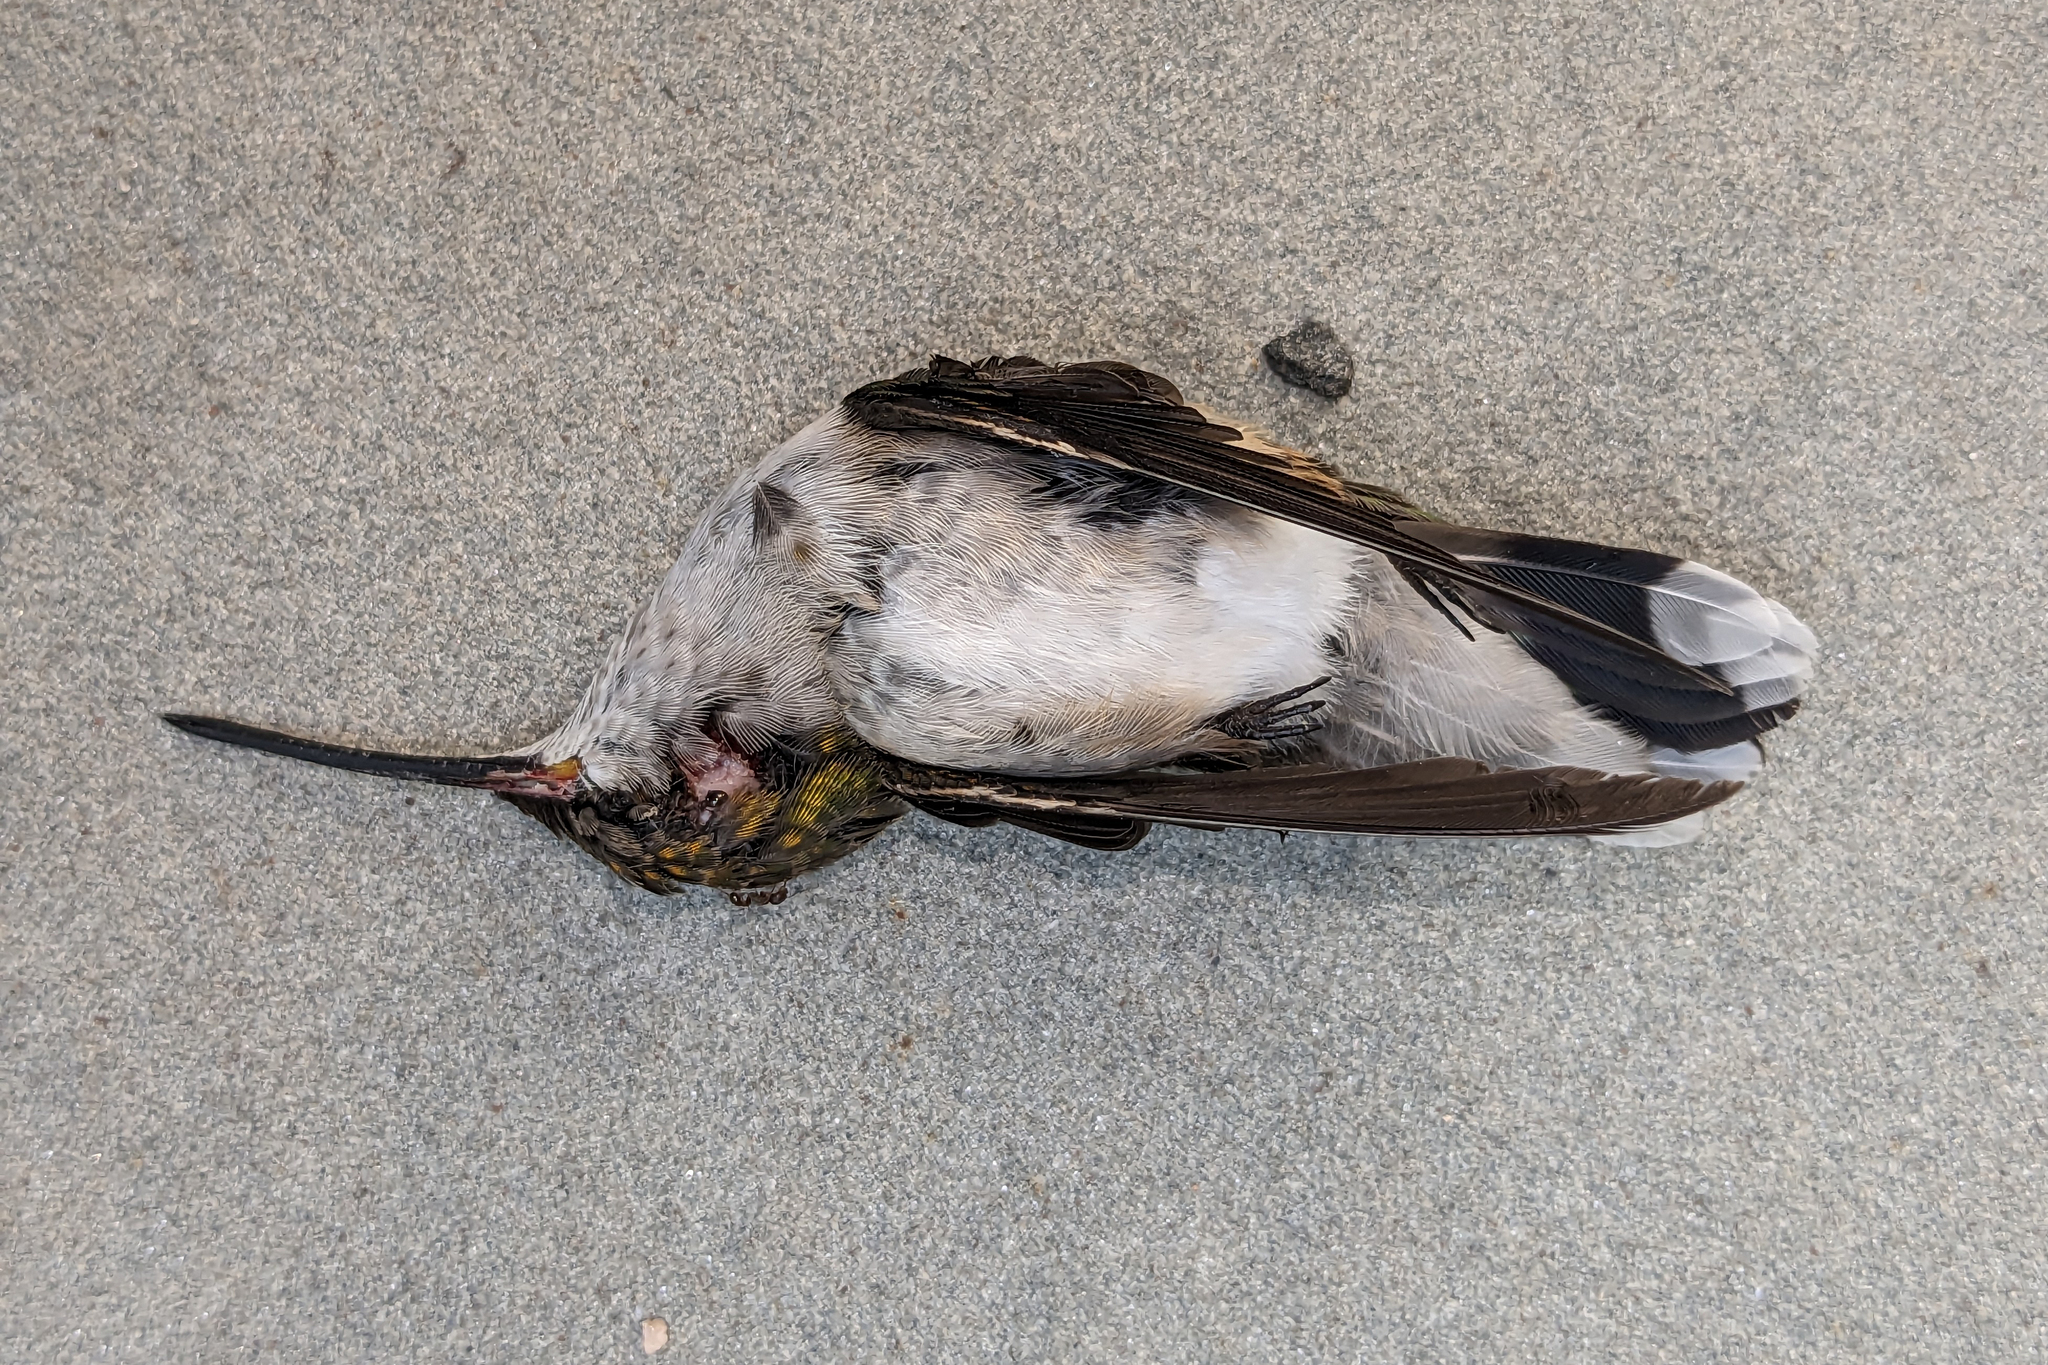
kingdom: Animalia
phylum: Chordata
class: Aves
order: Apodiformes
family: Trochilidae
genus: Archilochus
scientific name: Archilochus colubris
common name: Ruby-throated hummingbird
